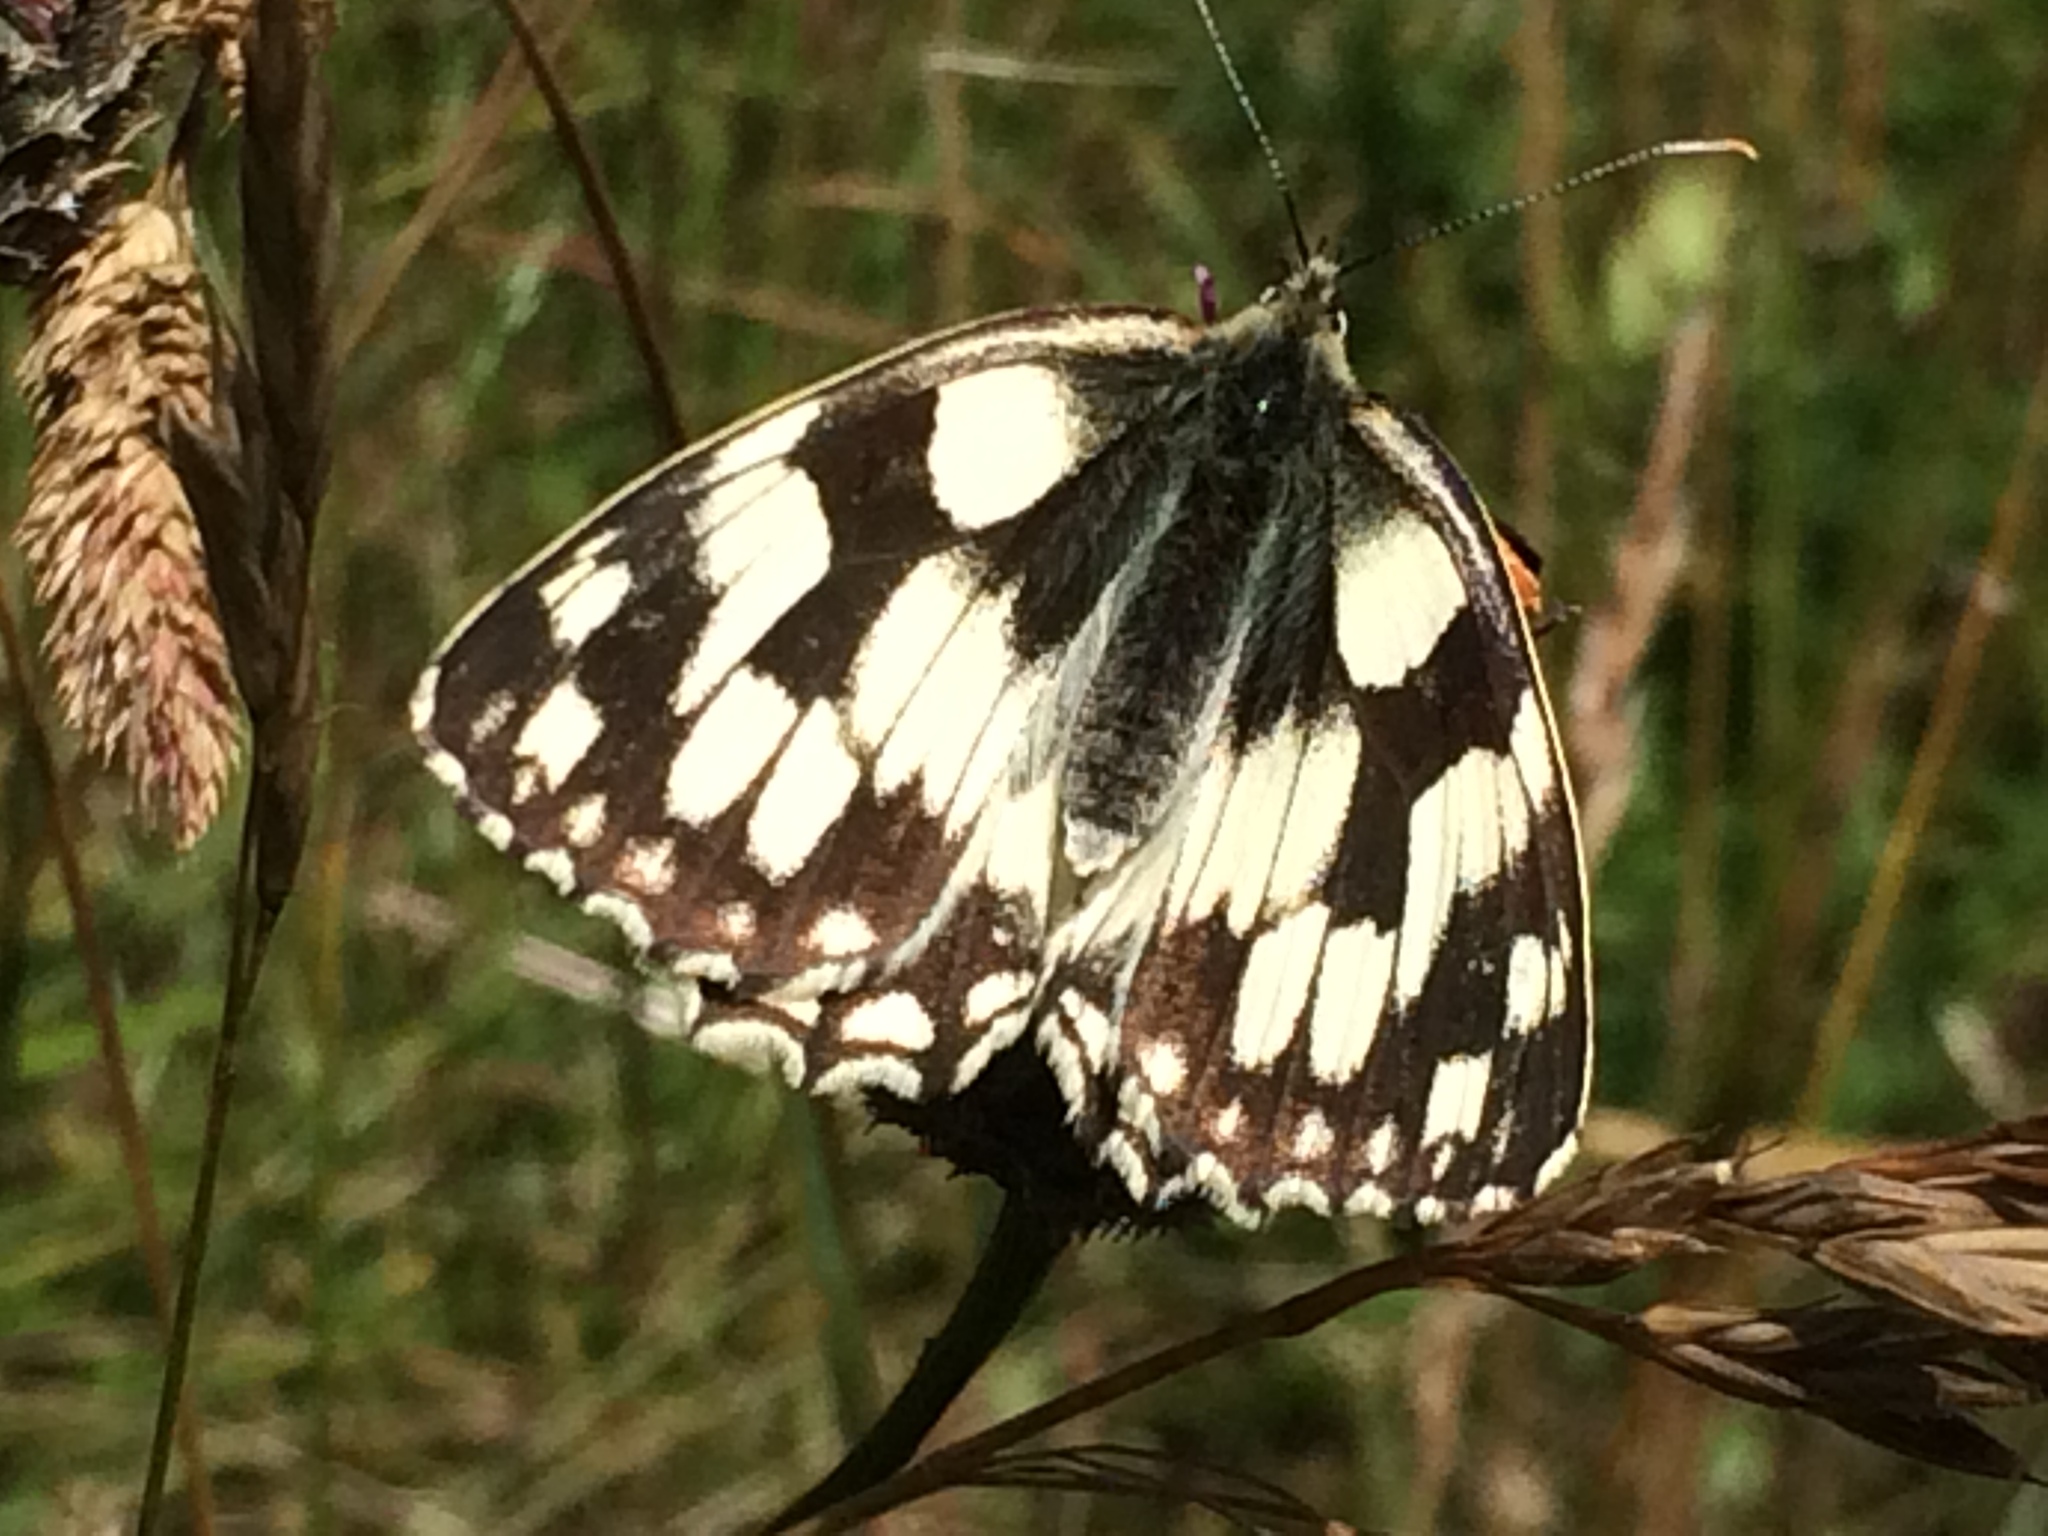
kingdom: Animalia
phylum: Arthropoda
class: Insecta
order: Lepidoptera
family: Nymphalidae
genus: Melanargia
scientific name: Melanargia galathea
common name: Marbled white
